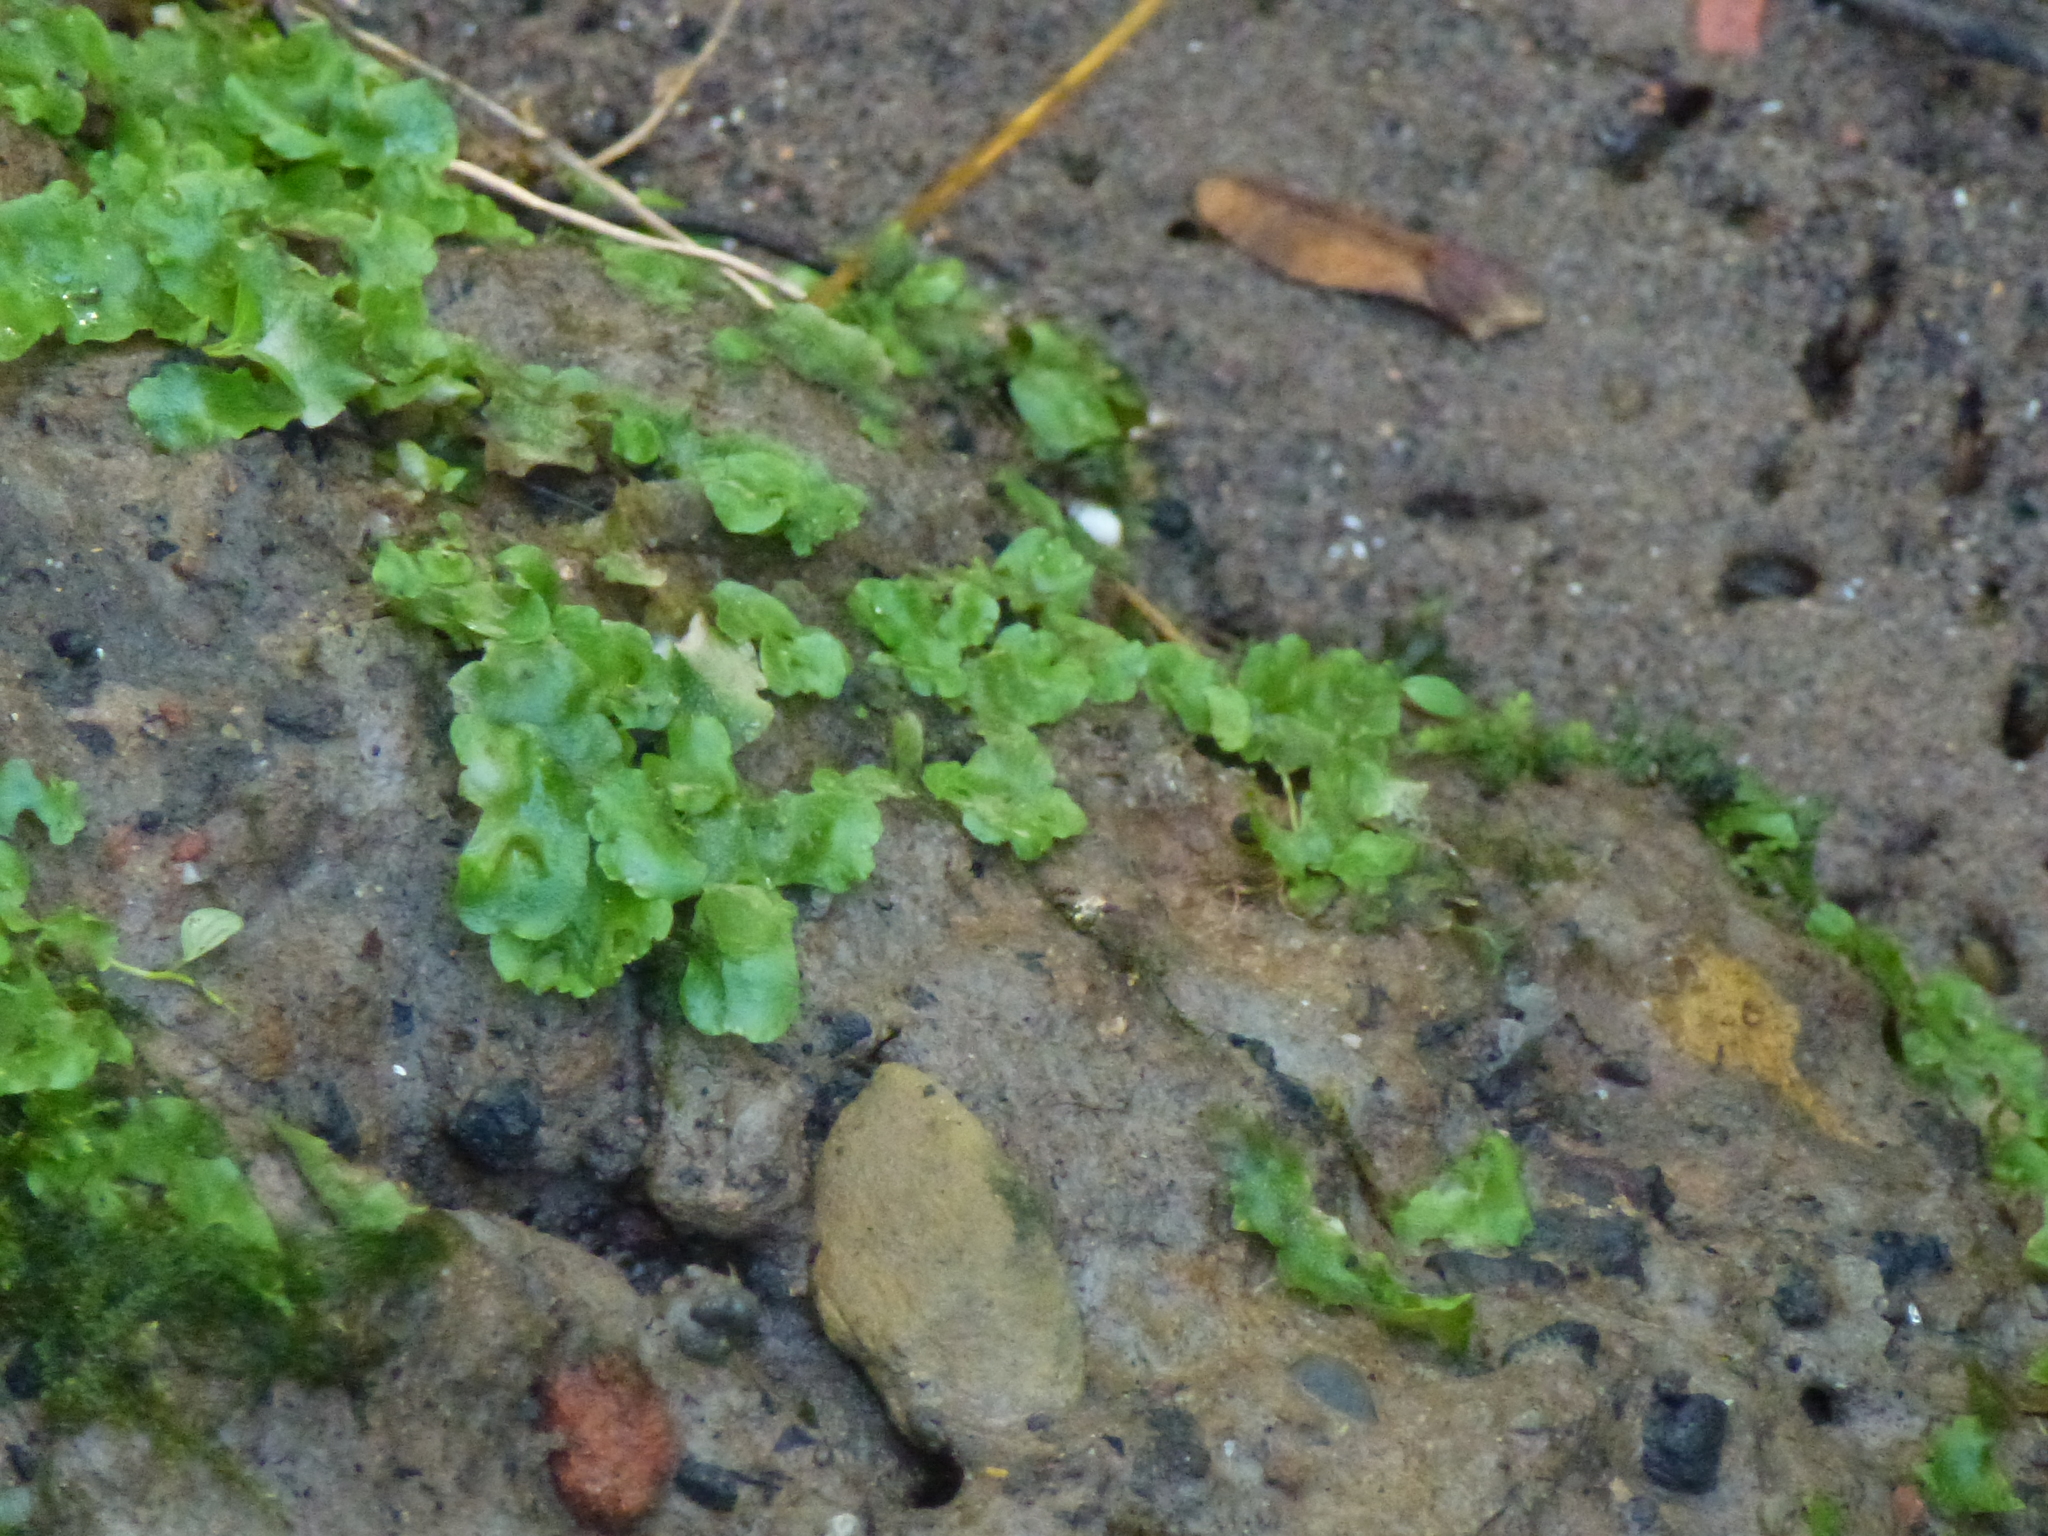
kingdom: Plantae
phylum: Marchantiophyta
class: Marchantiopsida
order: Lunulariales
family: Lunulariaceae
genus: Lunularia
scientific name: Lunularia cruciata
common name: Crescent-cup liverwort
